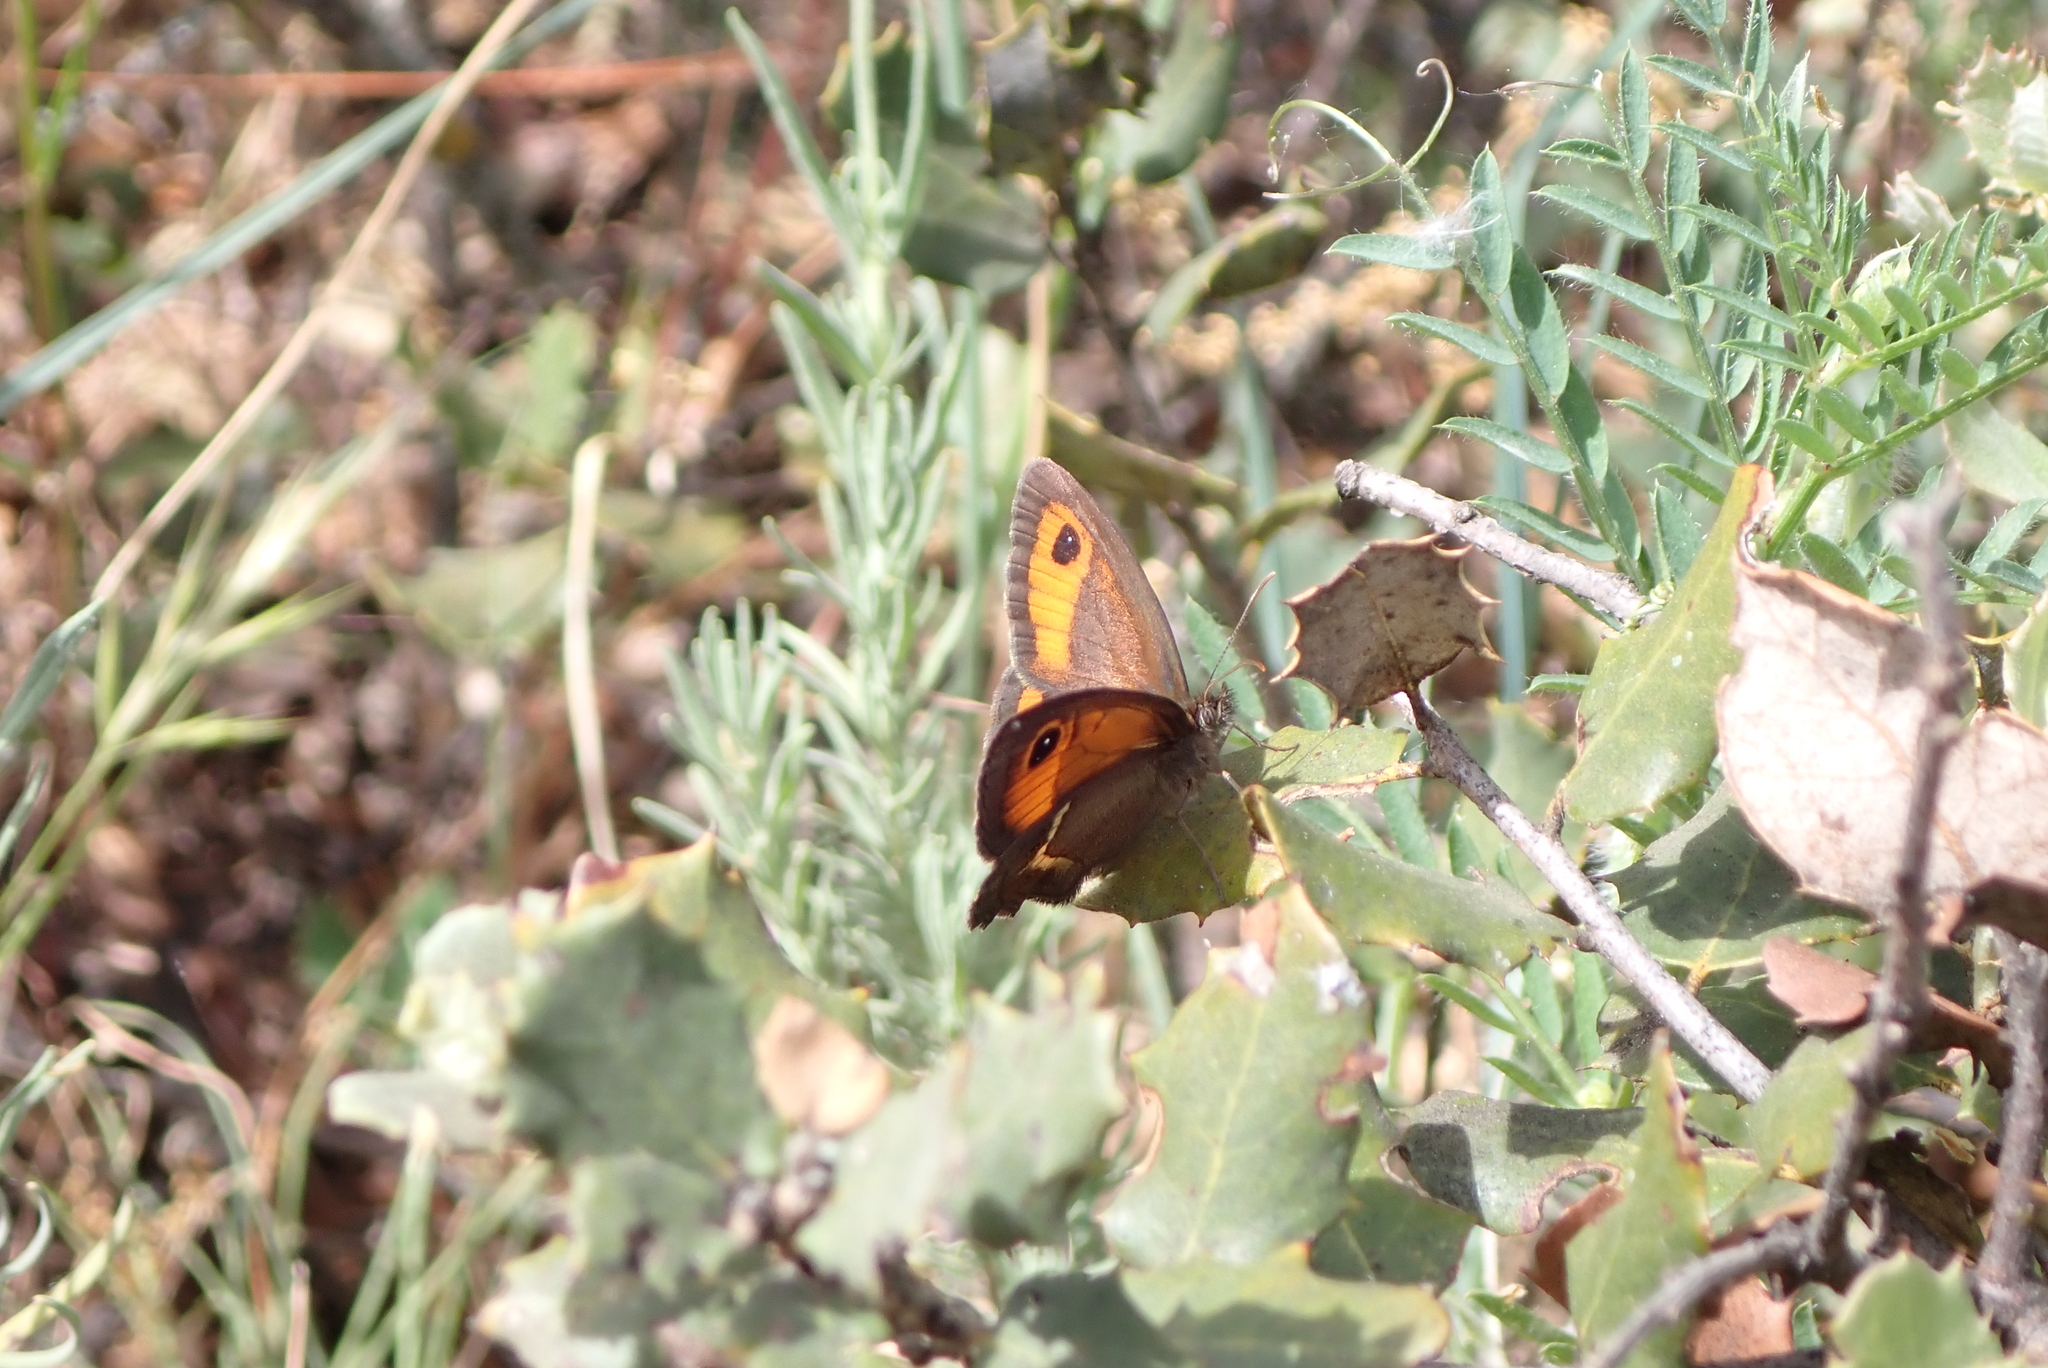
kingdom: Animalia
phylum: Arthropoda
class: Insecta
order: Lepidoptera
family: Nymphalidae
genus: Pyronia
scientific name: Pyronia bathseba
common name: Spanish gatekeeper
